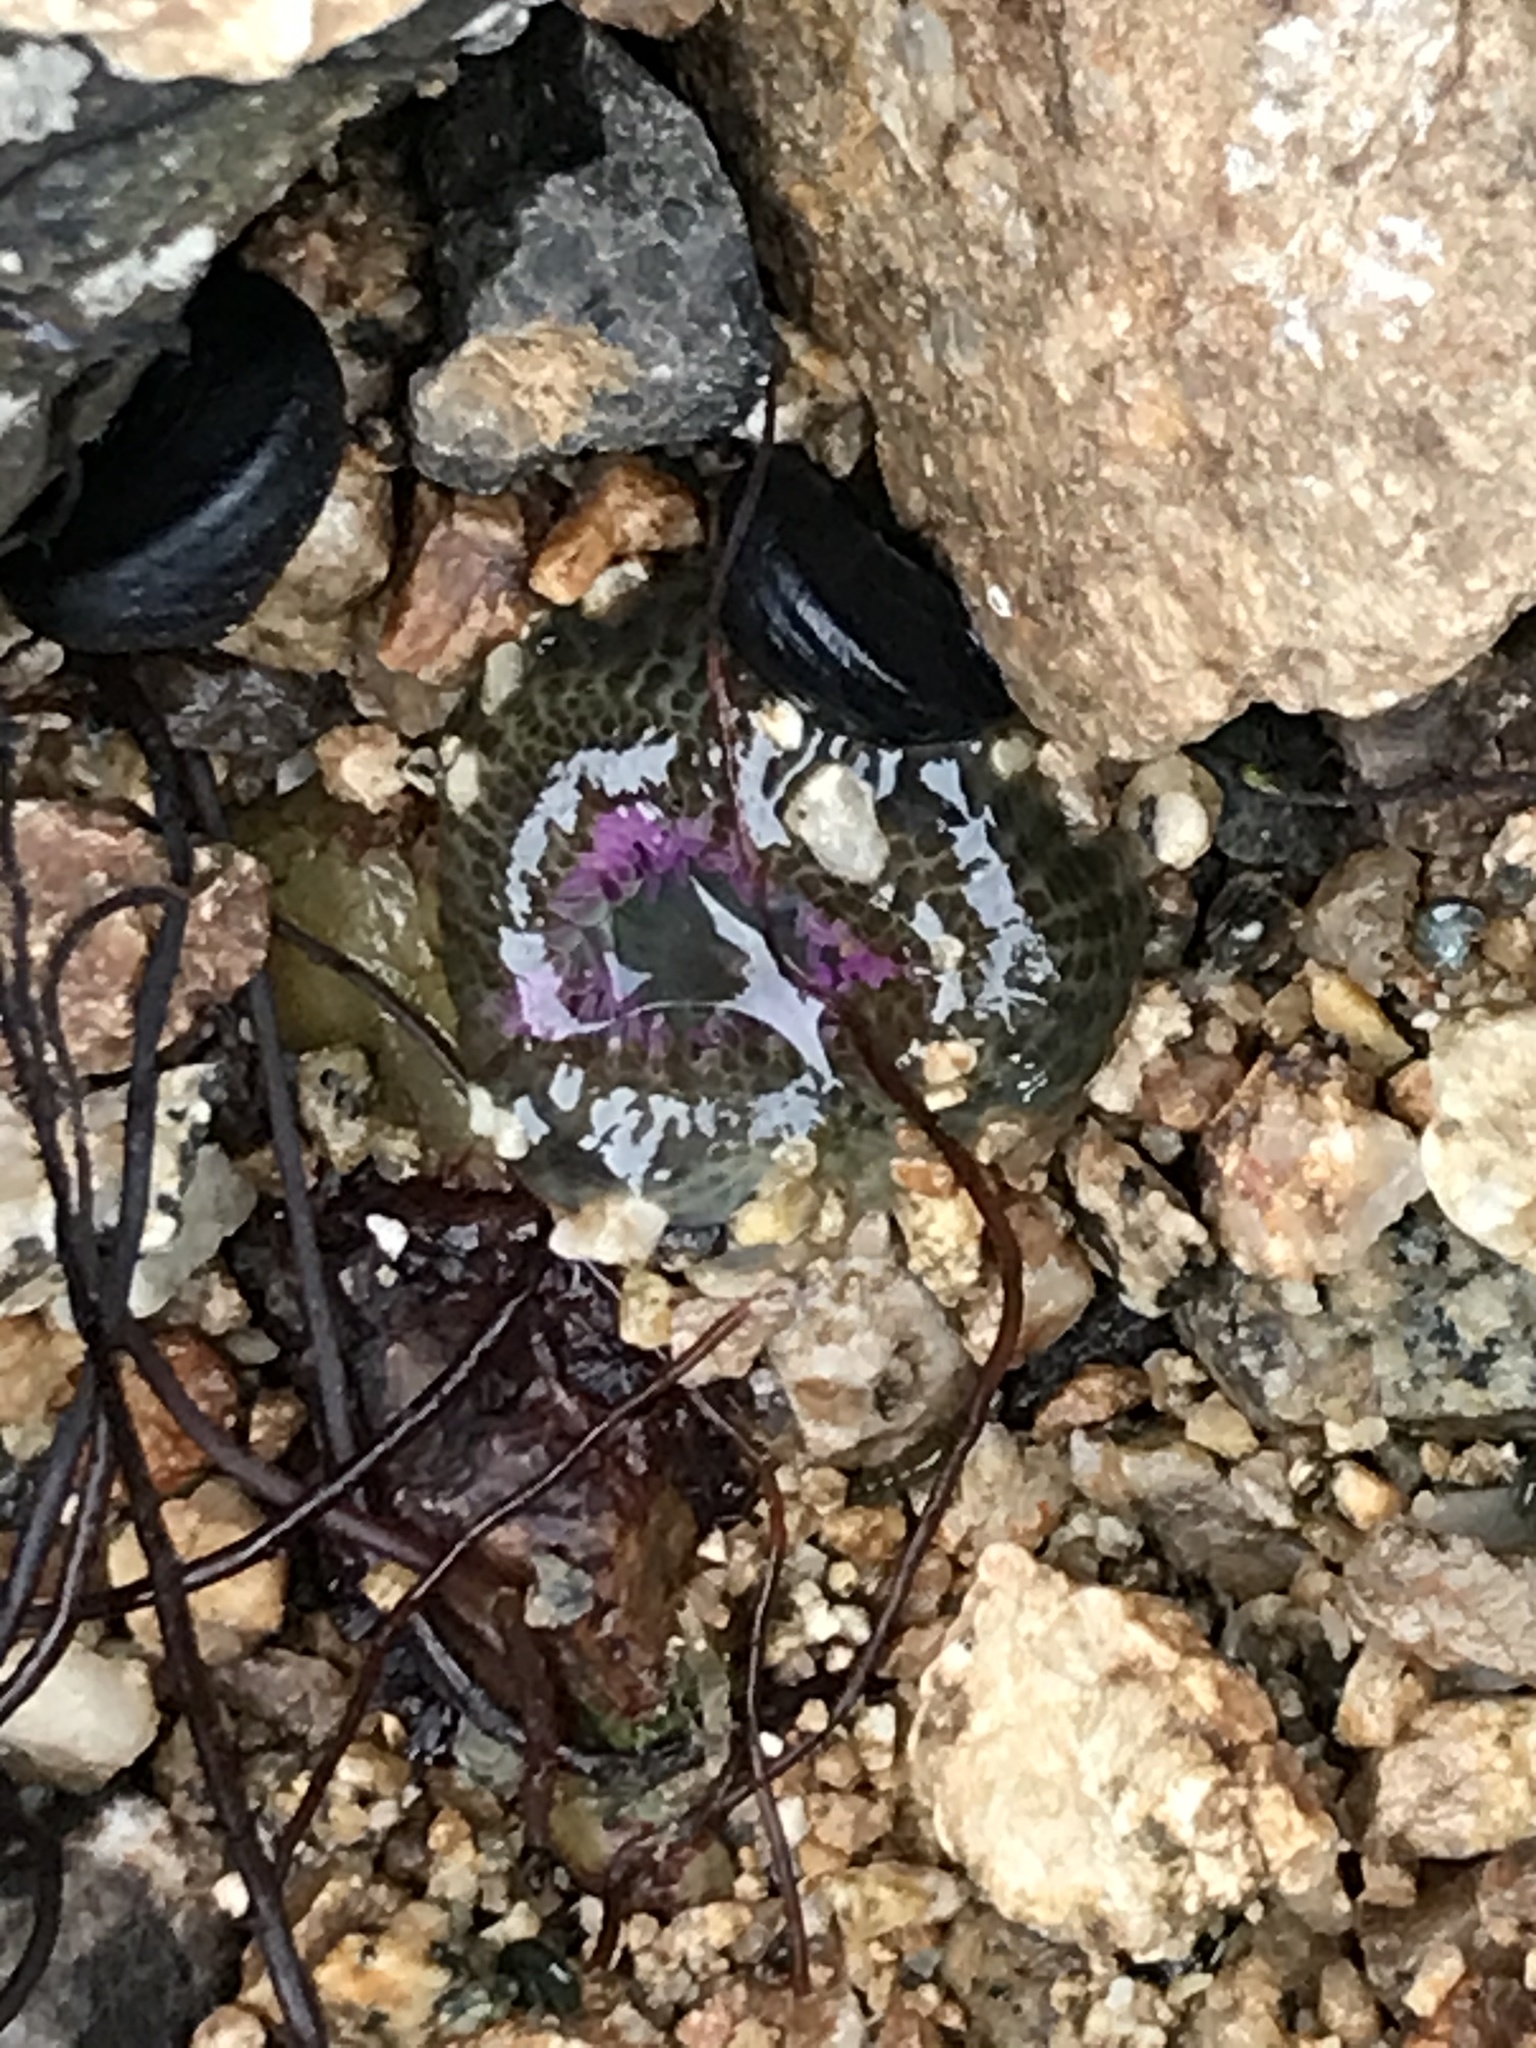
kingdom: Animalia
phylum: Cnidaria
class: Anthozoa
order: Actiniaria
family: Actiniidae
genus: Anthopleura
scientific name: Anthopleura elegantissima
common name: Clonal anemone
